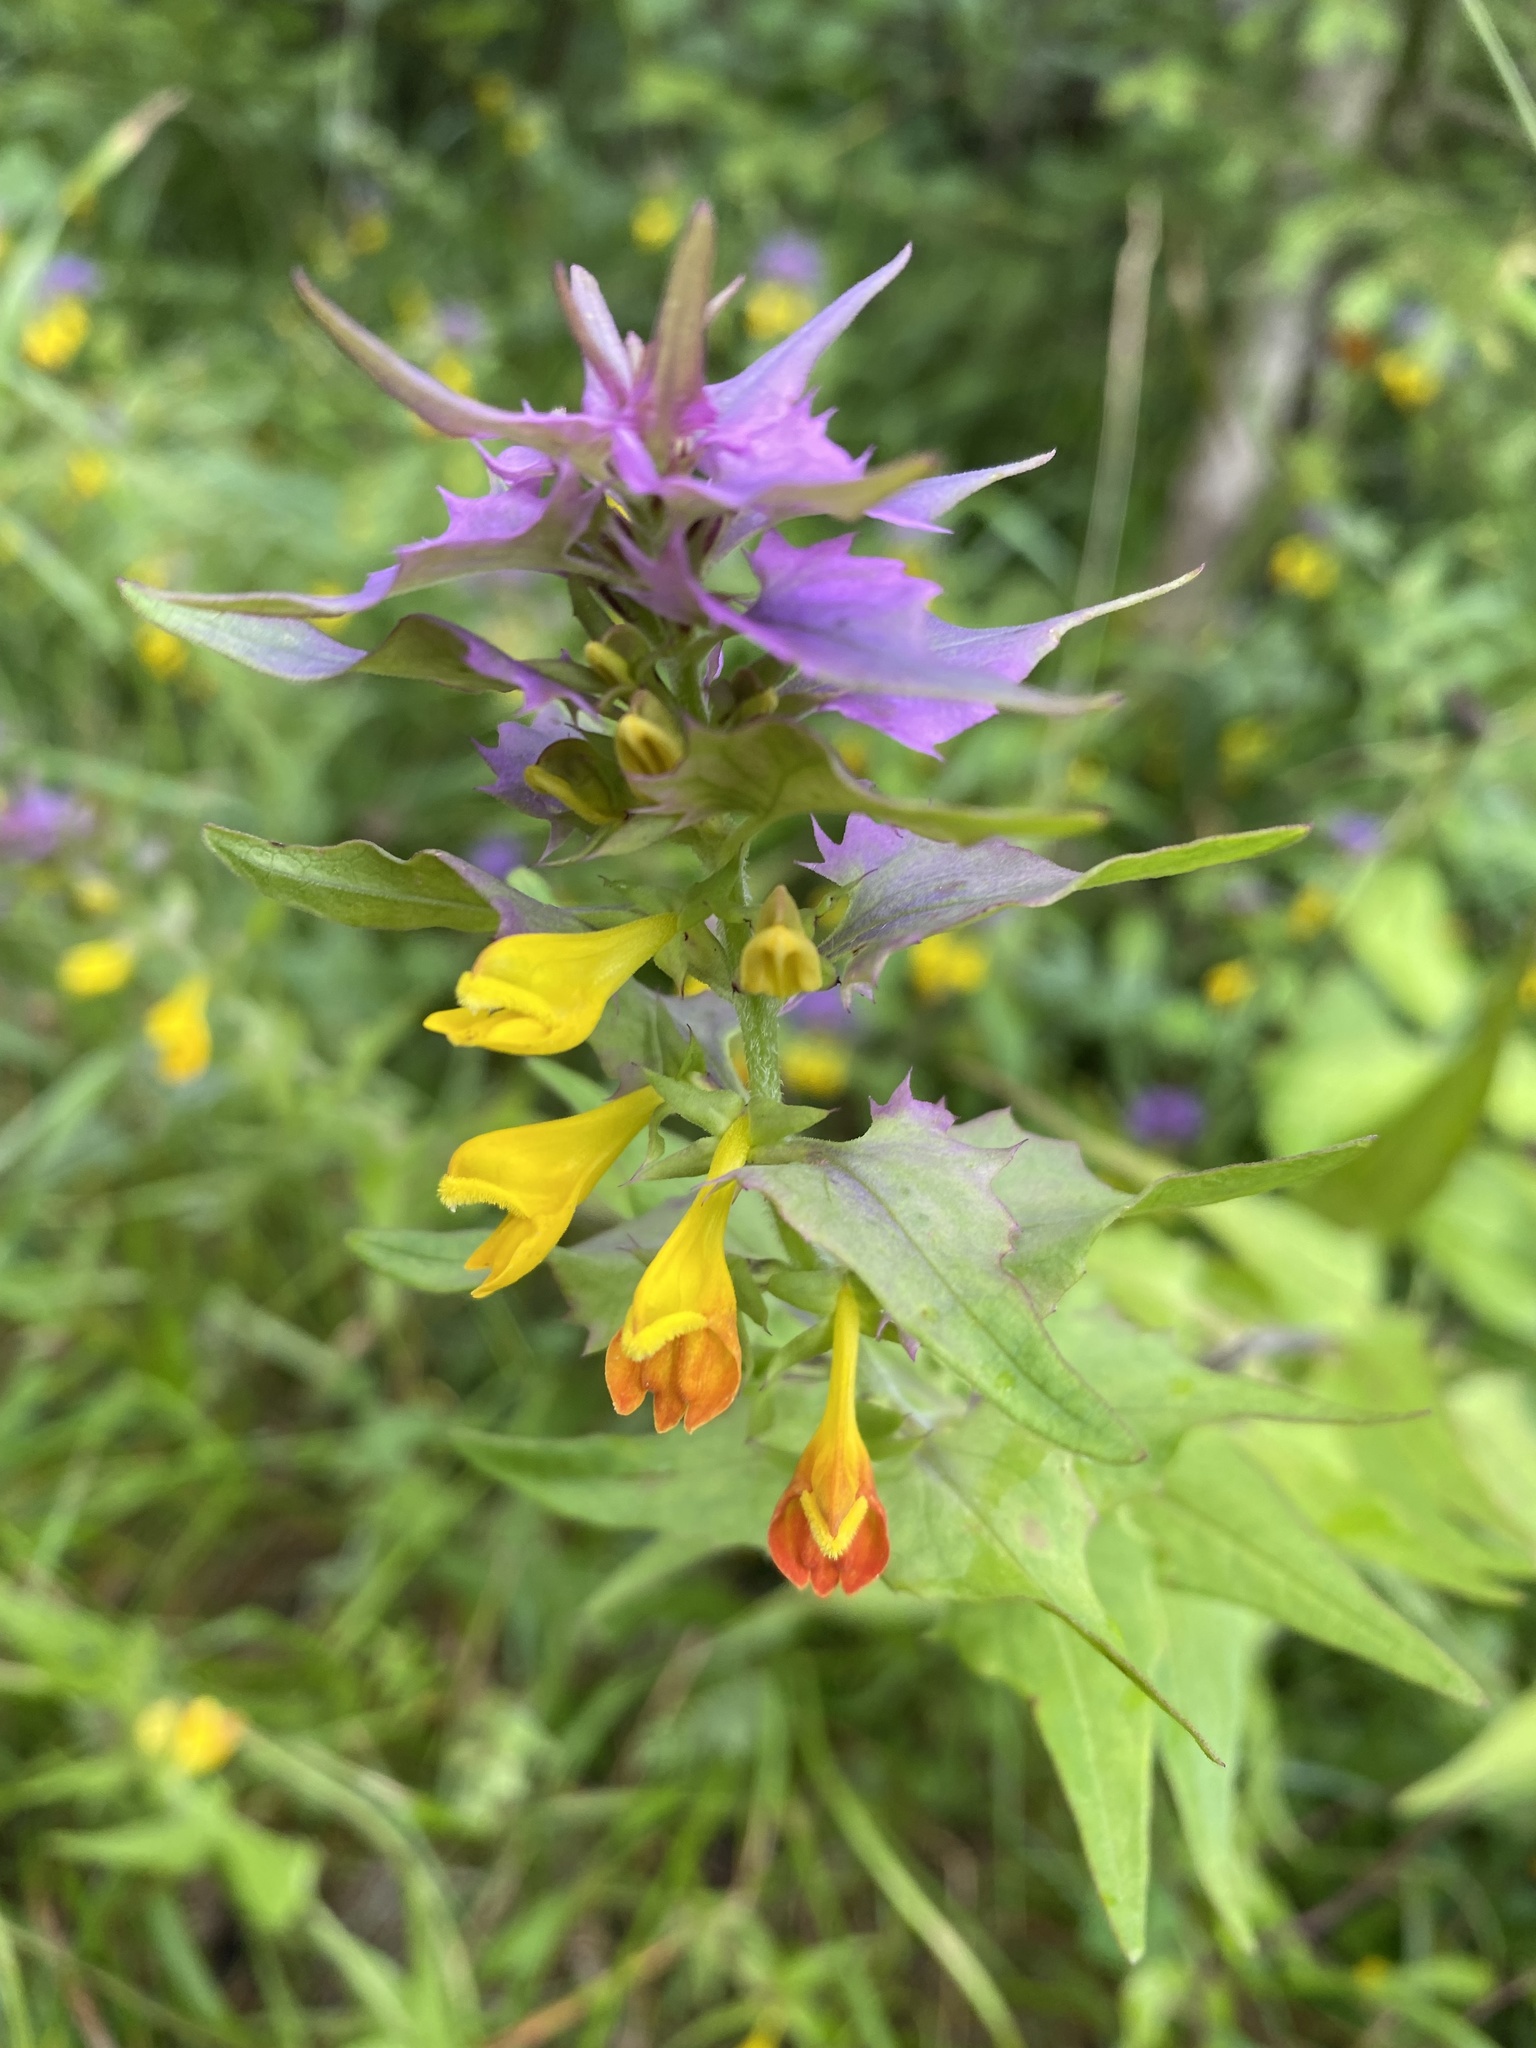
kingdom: Plantae
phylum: Tracheophyta
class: Magnoliopsida
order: Lamiales
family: Orobanchaceae
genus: Melampyrum
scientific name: Melampyrum nemorosum
